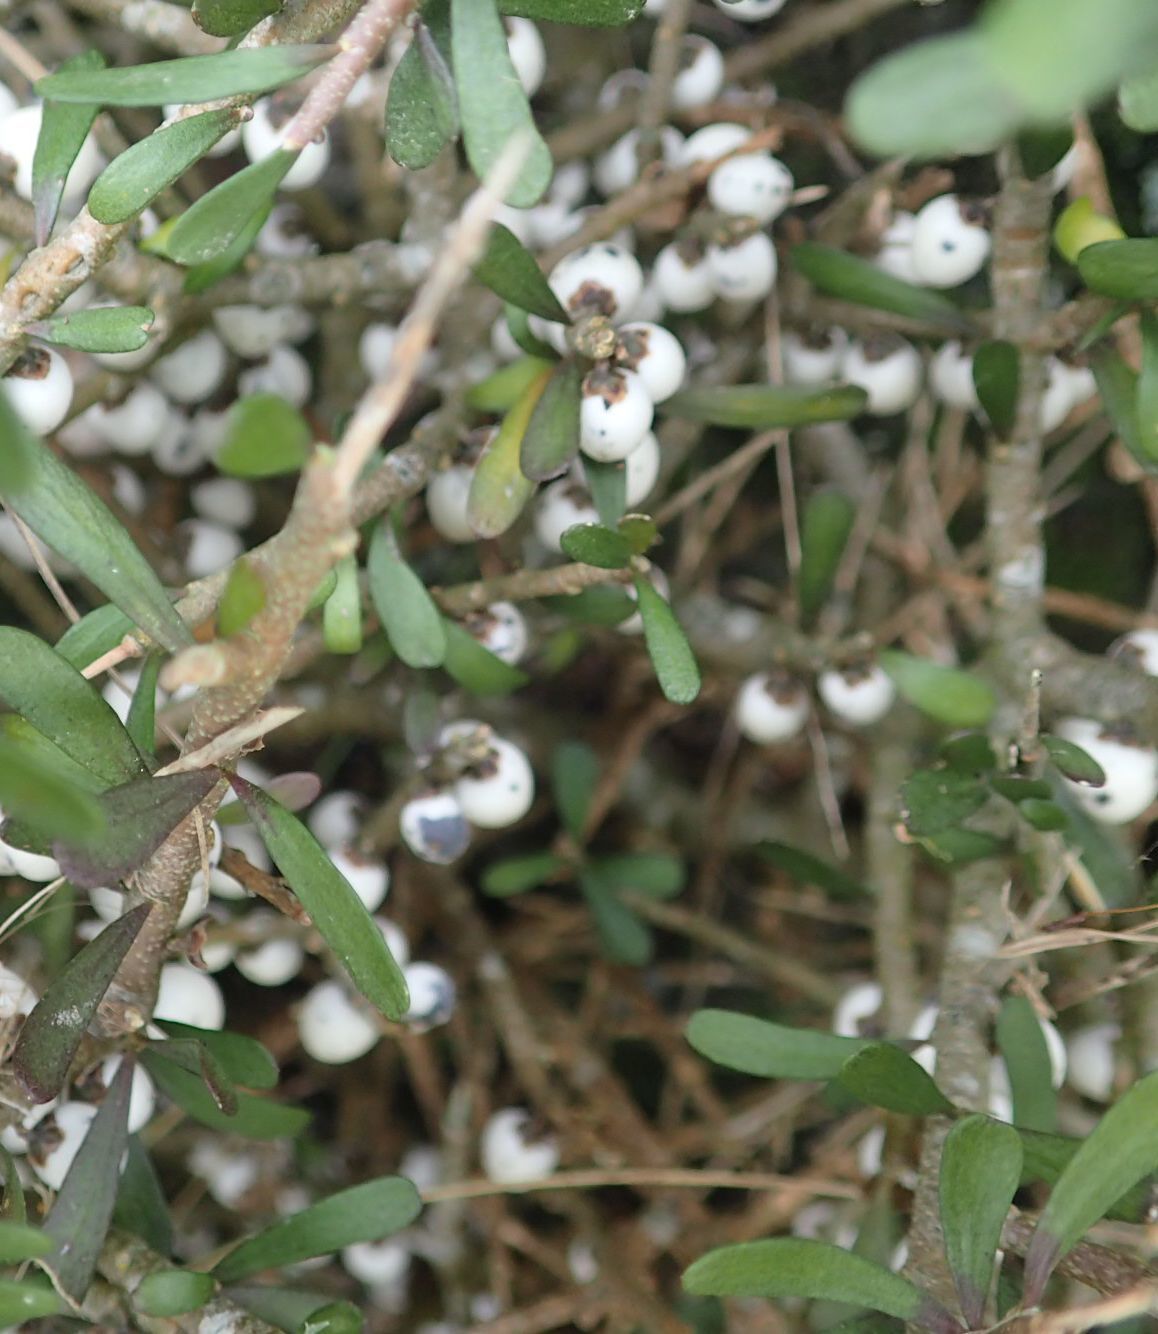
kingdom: Plantae
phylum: Tracheophyta
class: Magnoliopsida
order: Malpighiales
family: Violaceae
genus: Melicytus
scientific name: Melicytus alpinus
